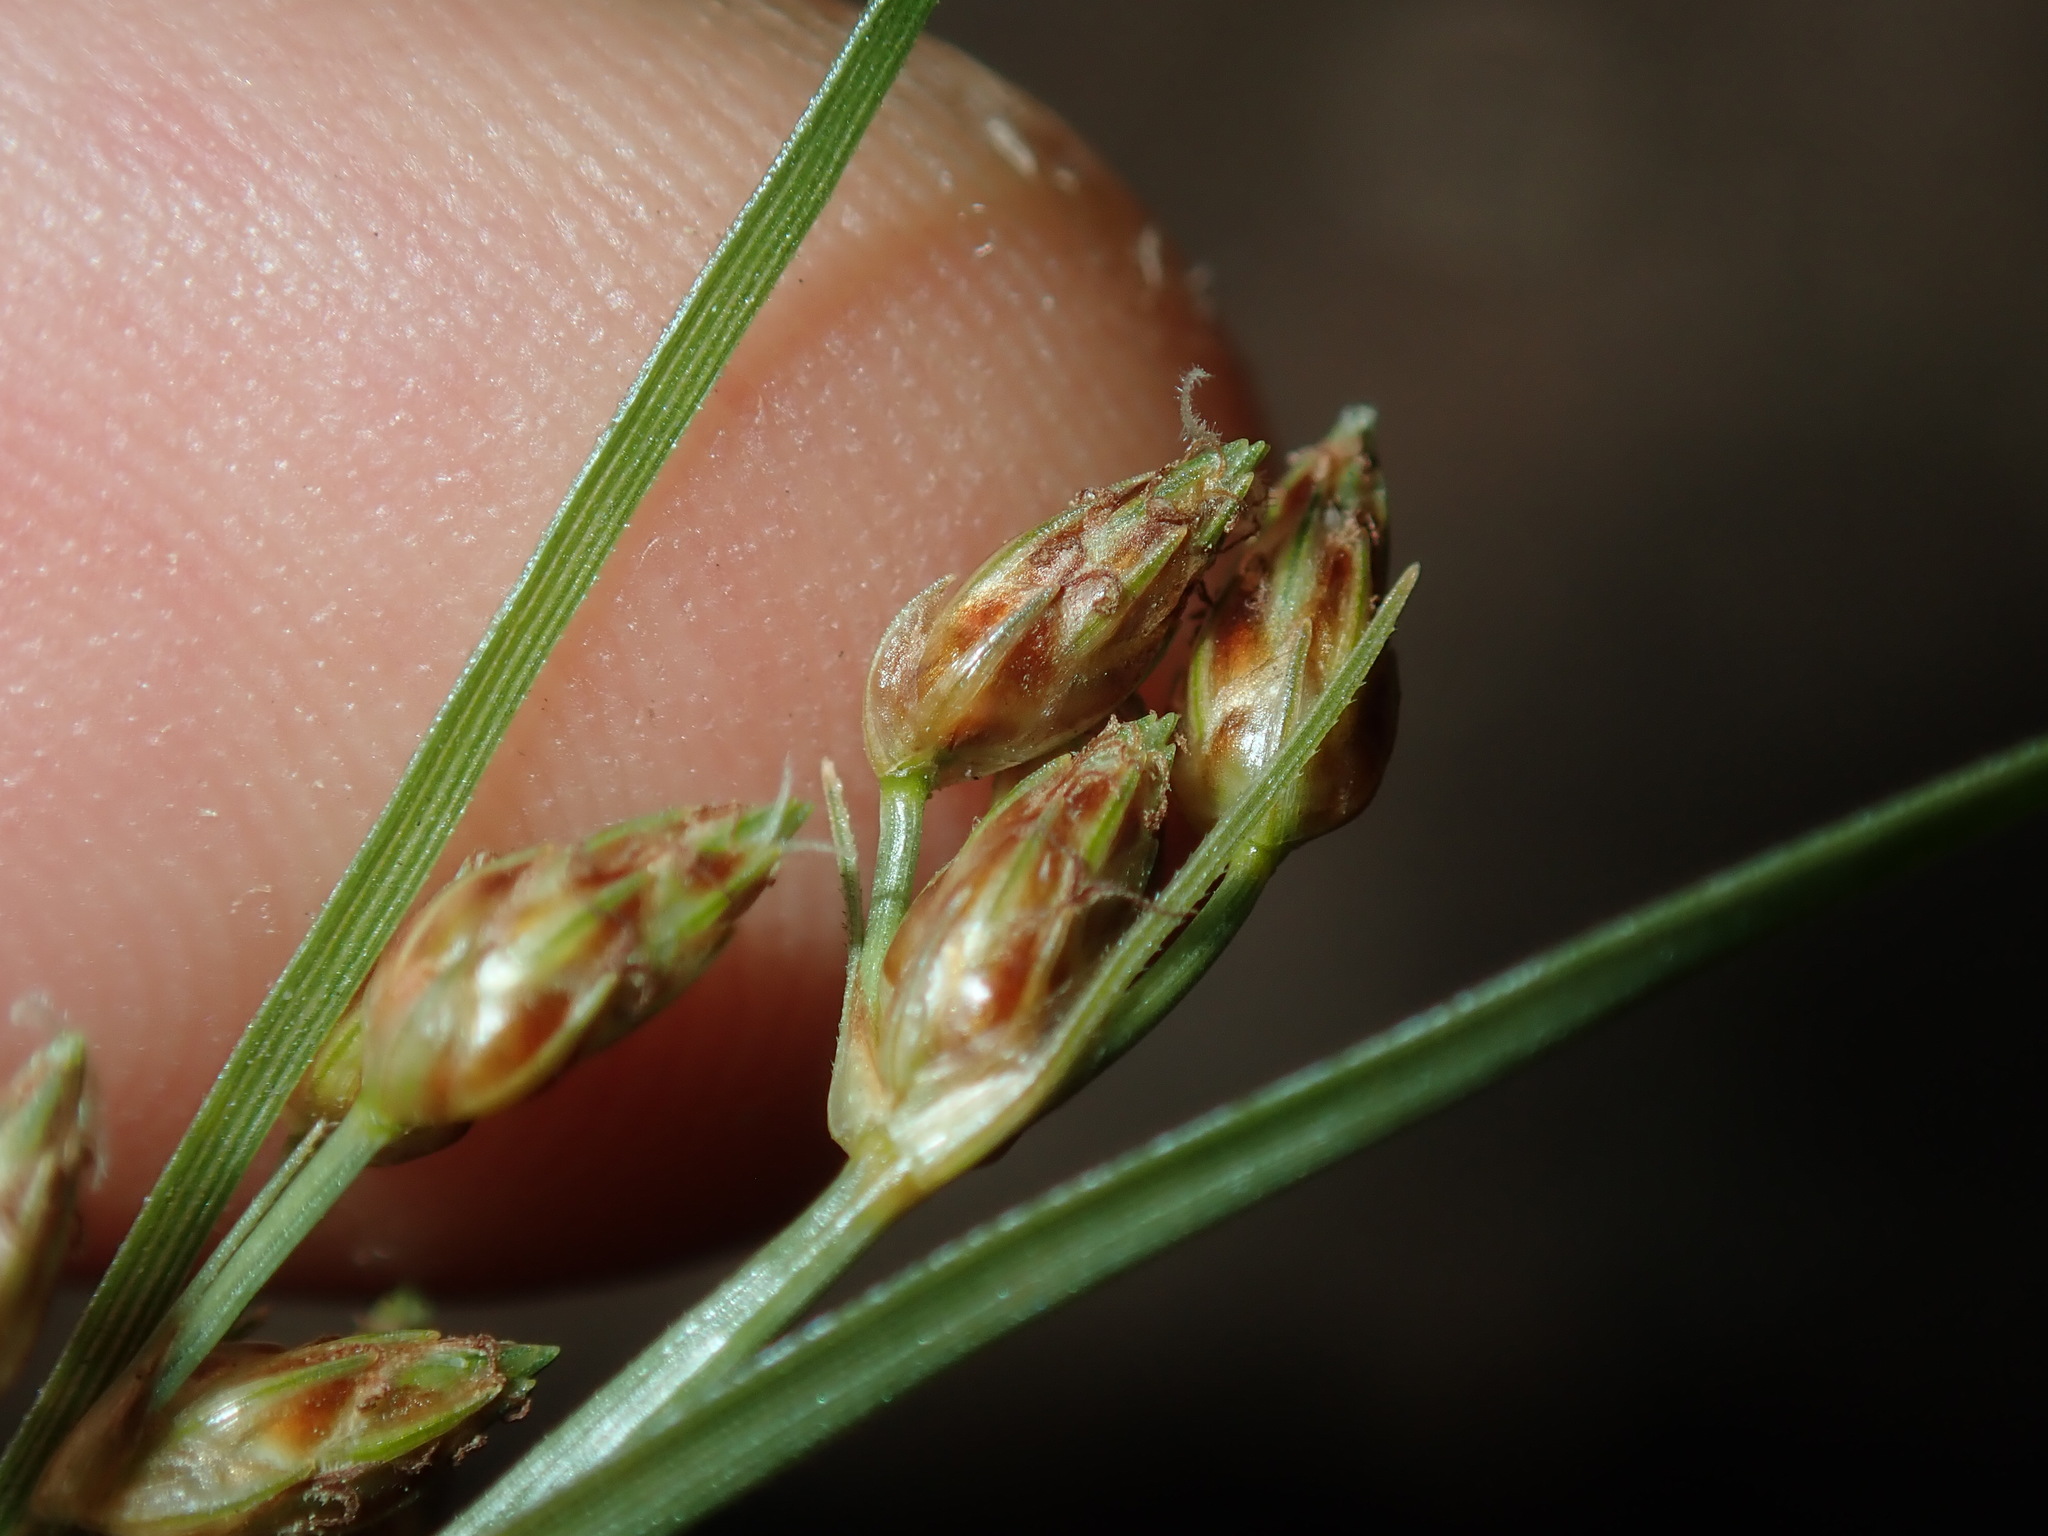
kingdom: Plantae
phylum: Tracheophyta
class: Liliopsida
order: Poales
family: Cyperaceae
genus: Fimbristylis
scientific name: Fimbristylis dichotoma
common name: Forked fimbry
